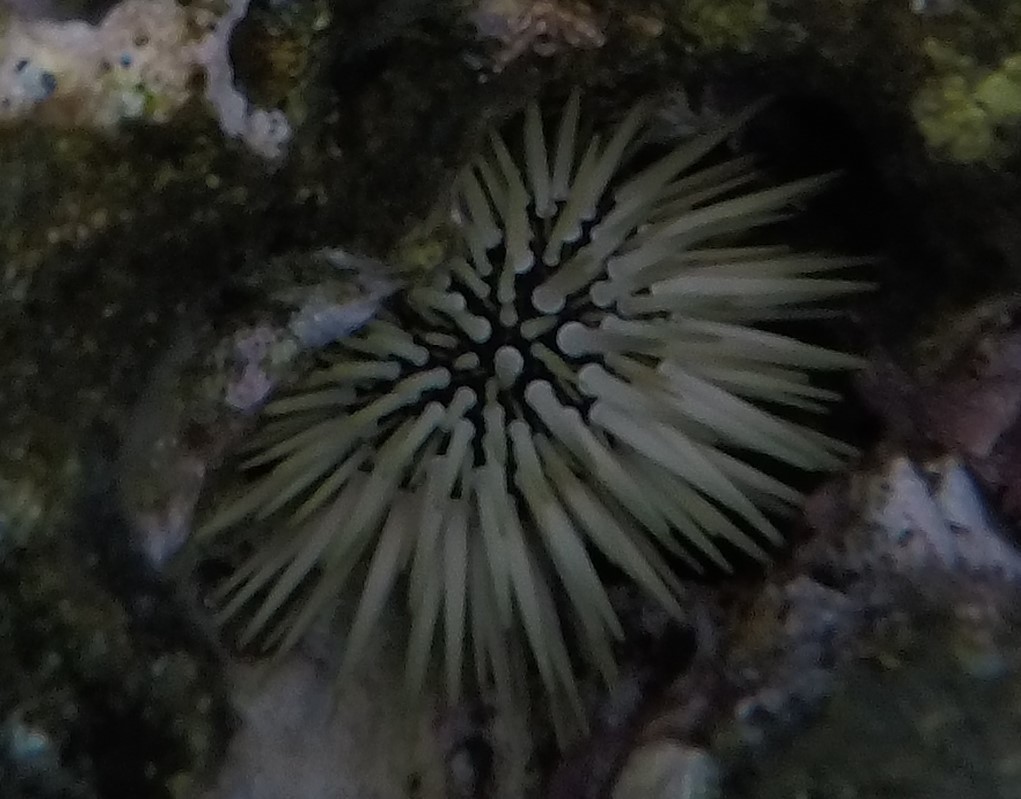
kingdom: Animalia
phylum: Echinodermata
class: Echinoidea
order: Camarodonta
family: Echinometridae
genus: Echinometra
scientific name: Echinometra mathaei
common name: Rock-boring urchin
